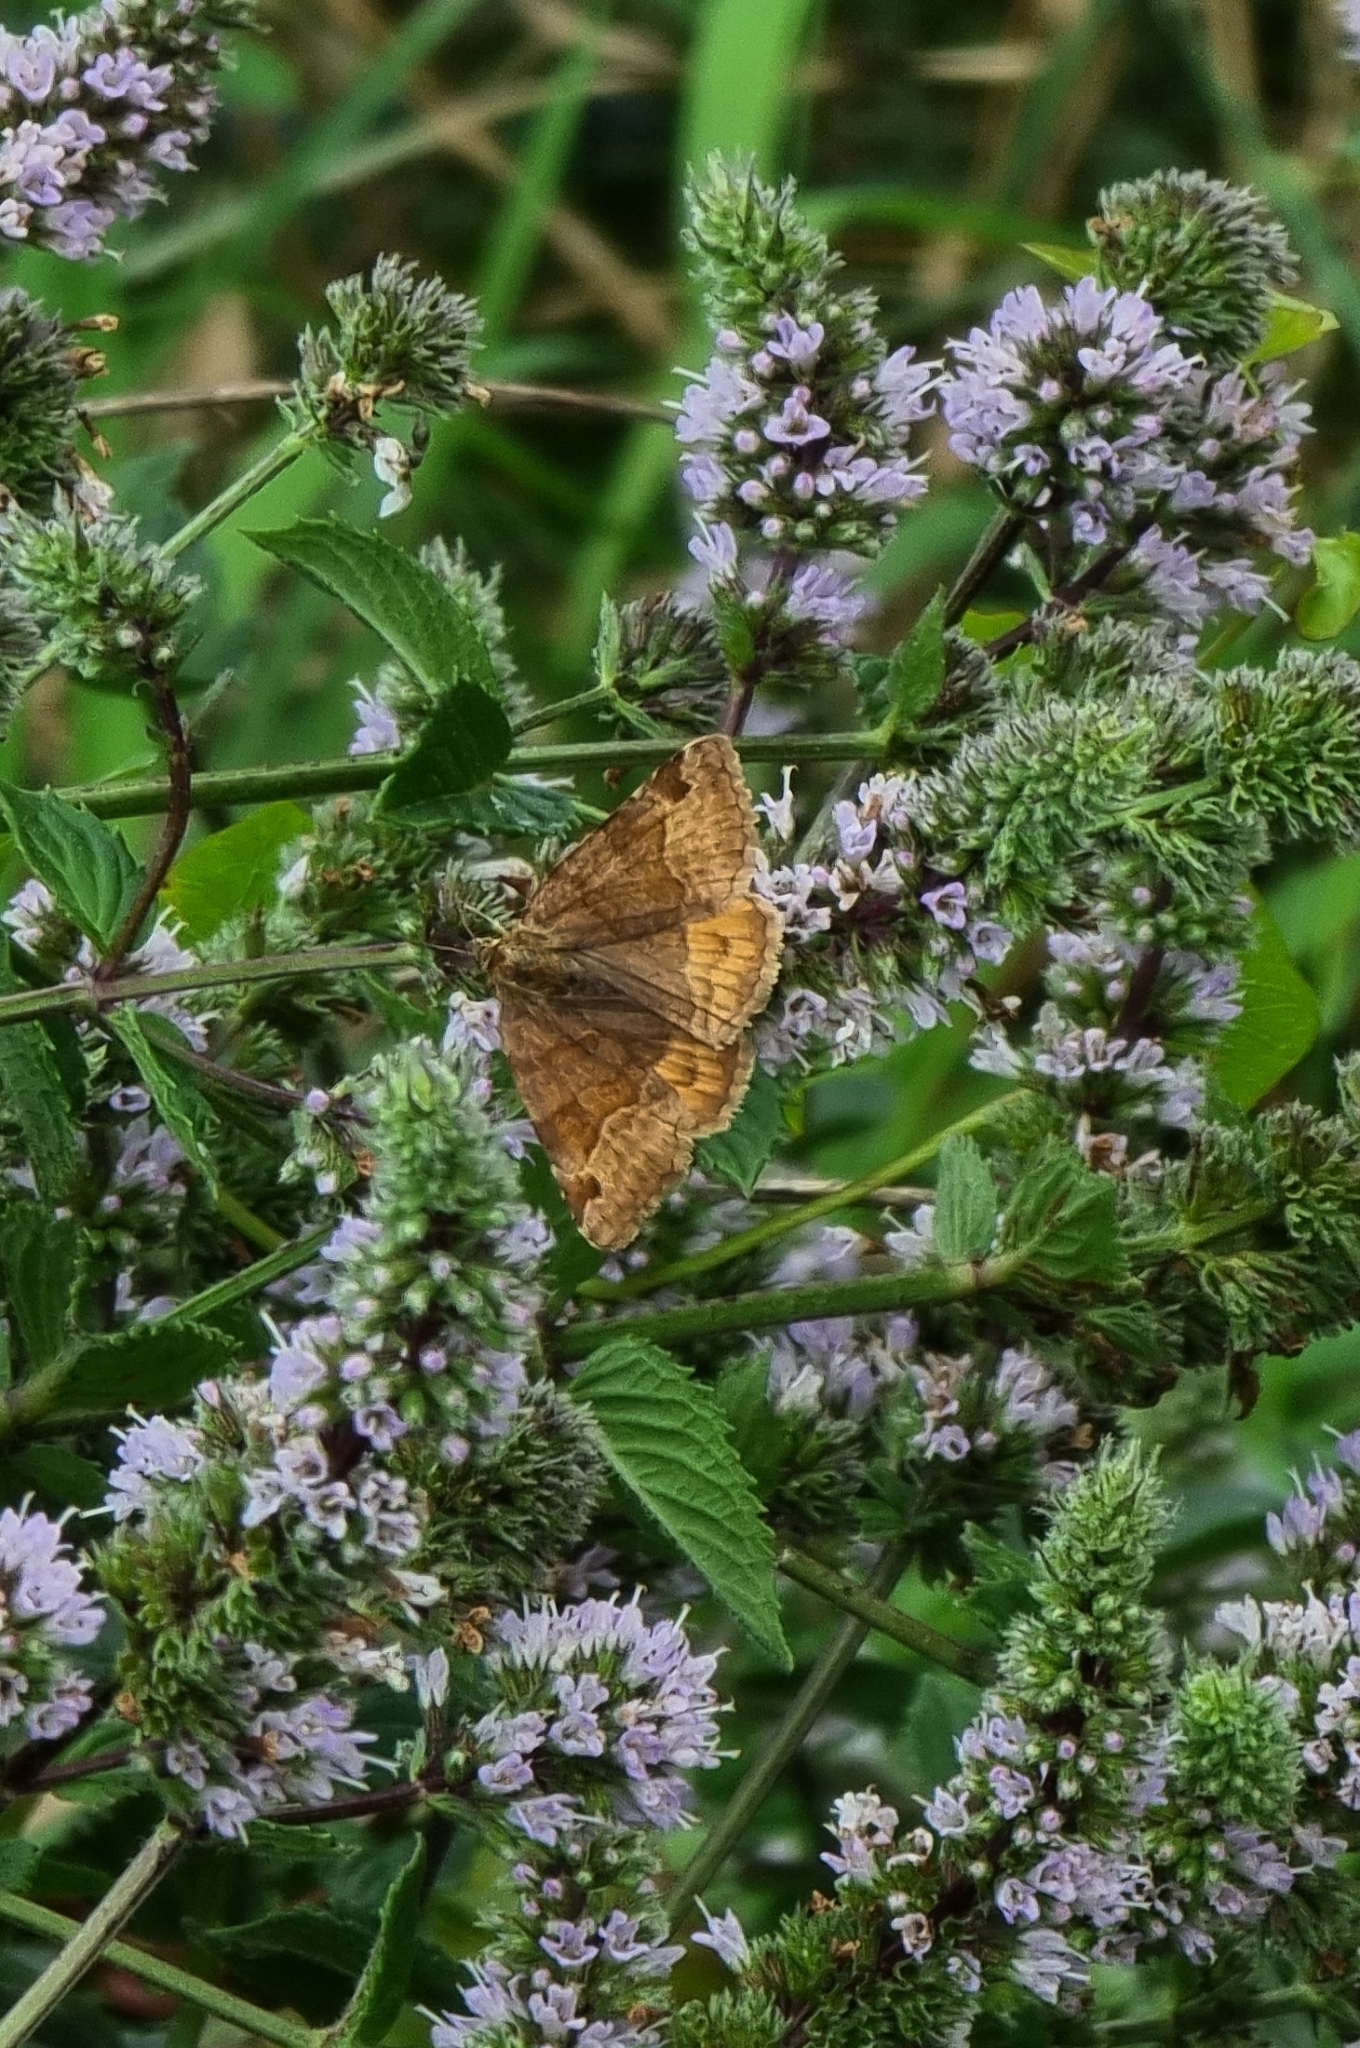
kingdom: Animalia
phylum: Arthropoda
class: Insecta
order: Lepidoptera
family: Erebidae
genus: Euclidia
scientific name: Euclidia glyphica
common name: Burnet companion
